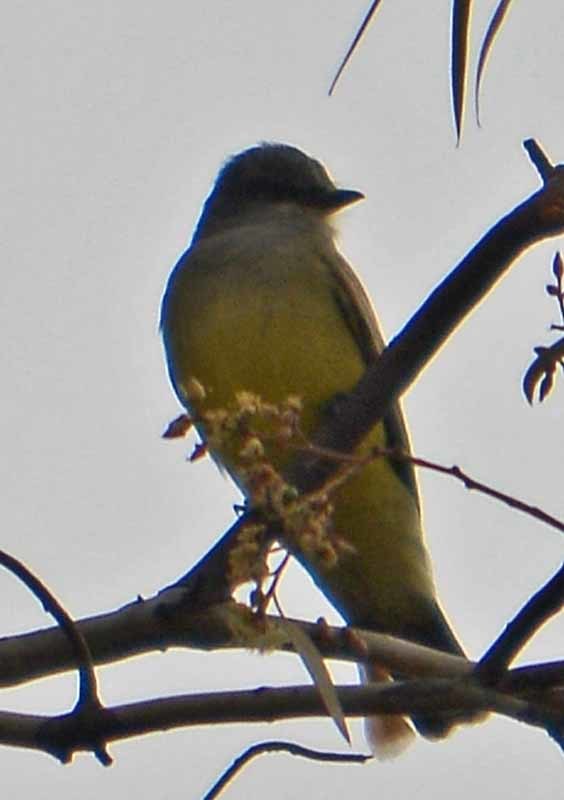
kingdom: Animalia
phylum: Chordata
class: Aves
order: Passeriformes
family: Tyrannidae
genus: Tyrannus
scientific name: Tyrannus vociferans
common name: Cassin's kingbird
